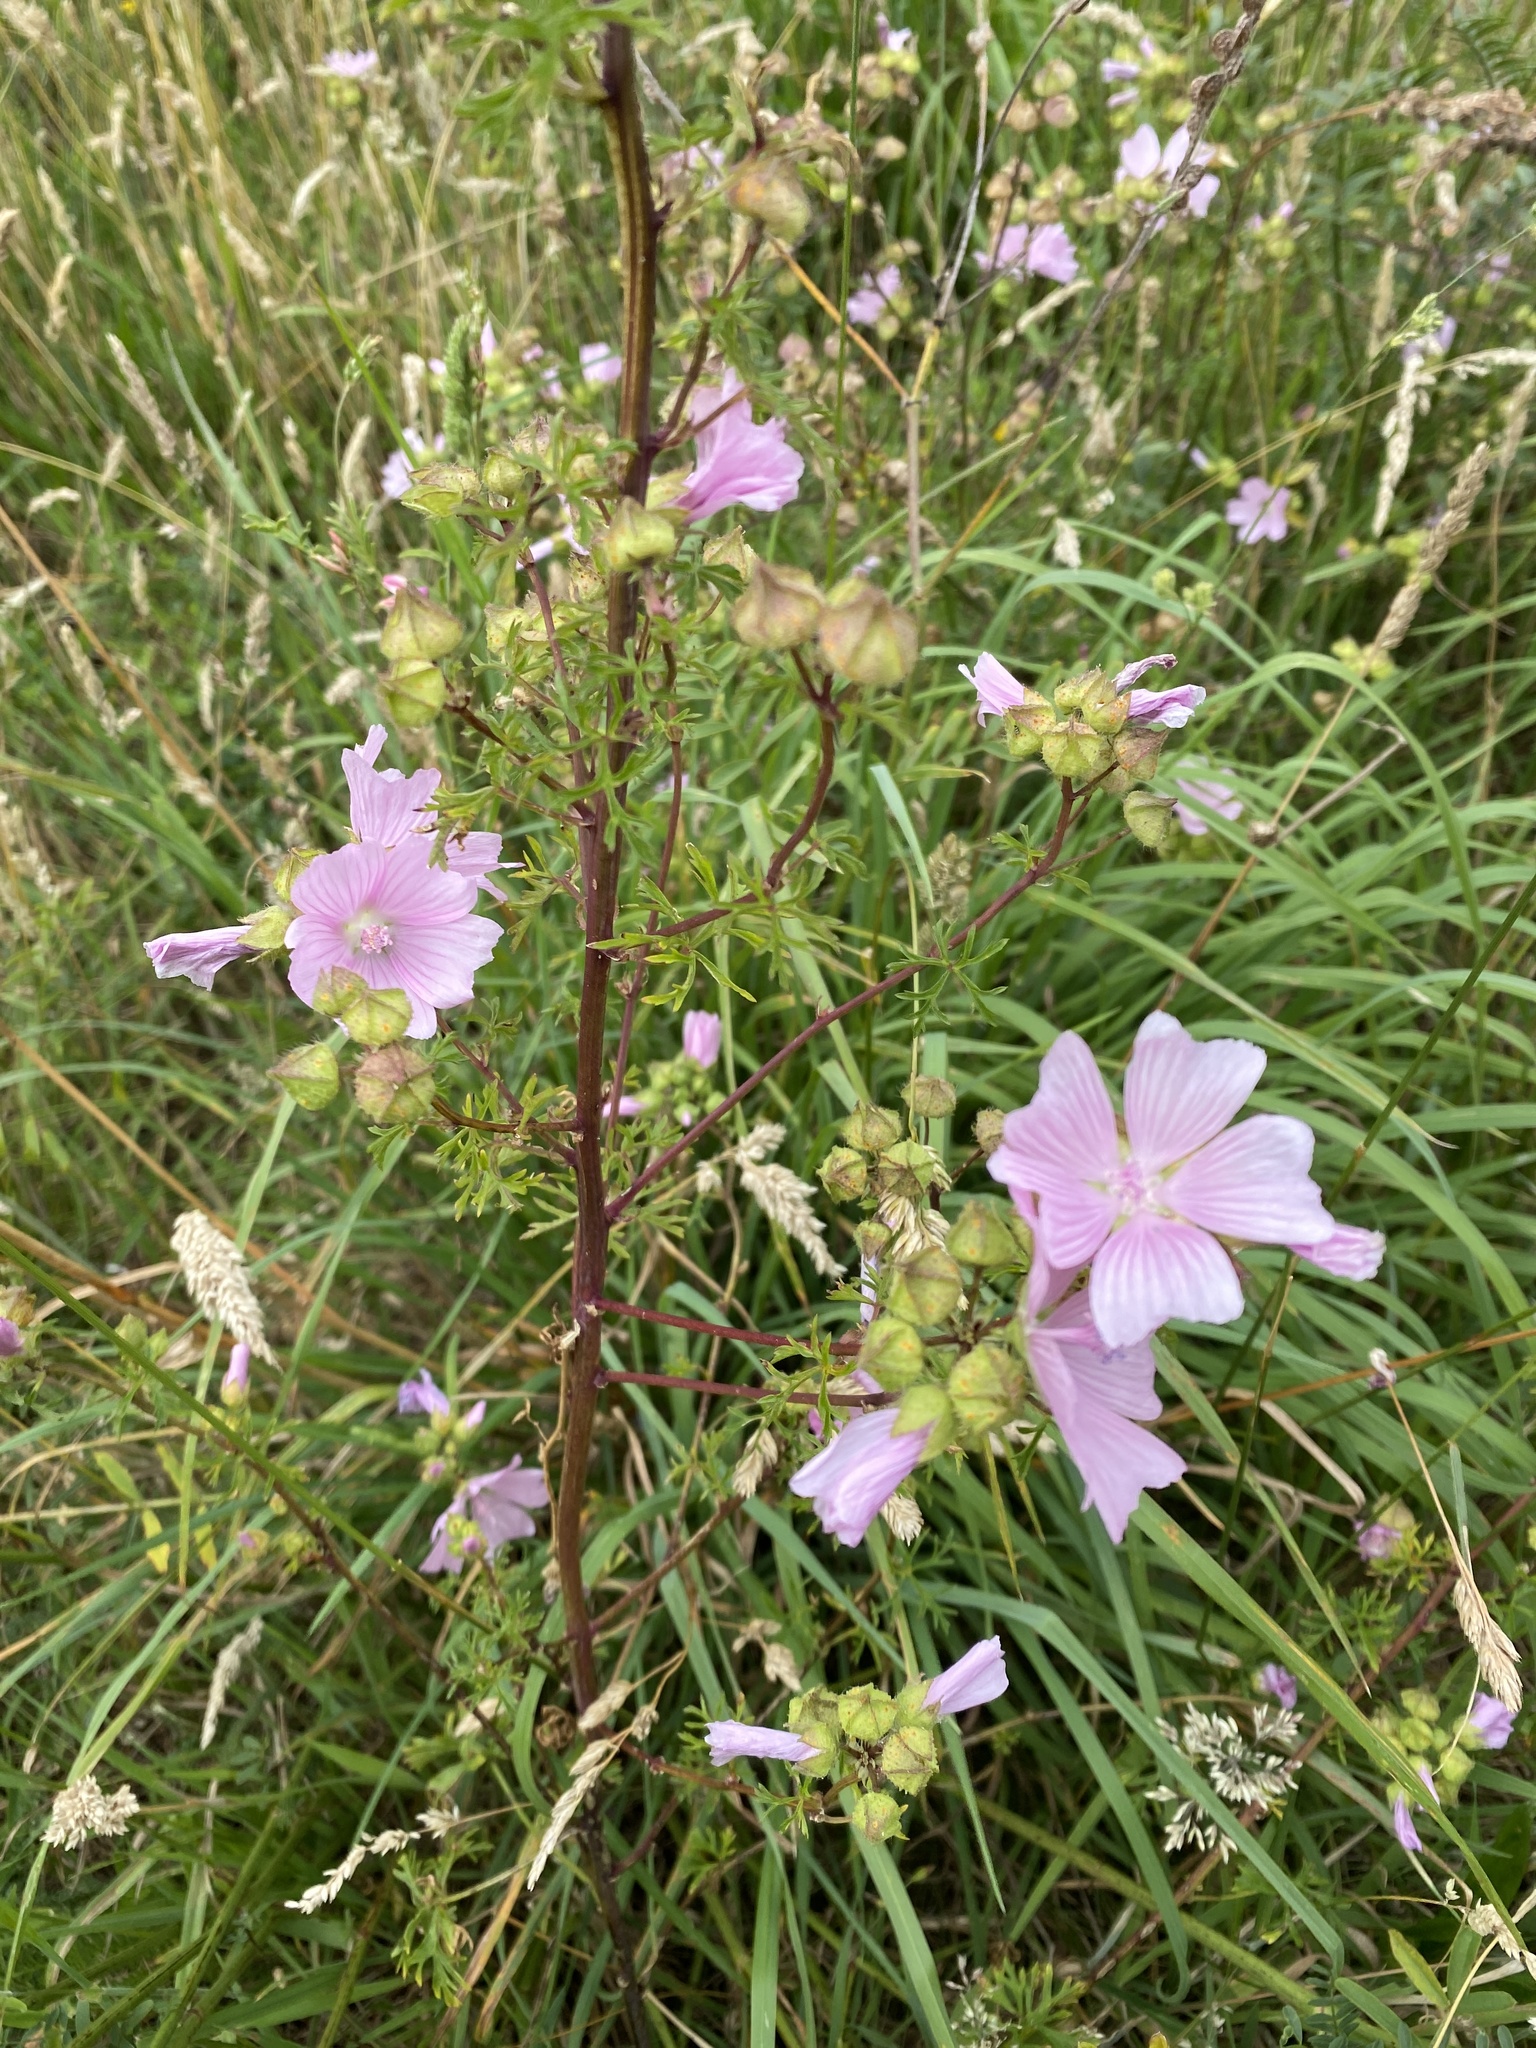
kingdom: Plantae
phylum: Tracheophyta
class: Magnoliopsida
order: Malvales
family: Malvaceae
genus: Malva
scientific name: Malva moschata
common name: Musk mallow
